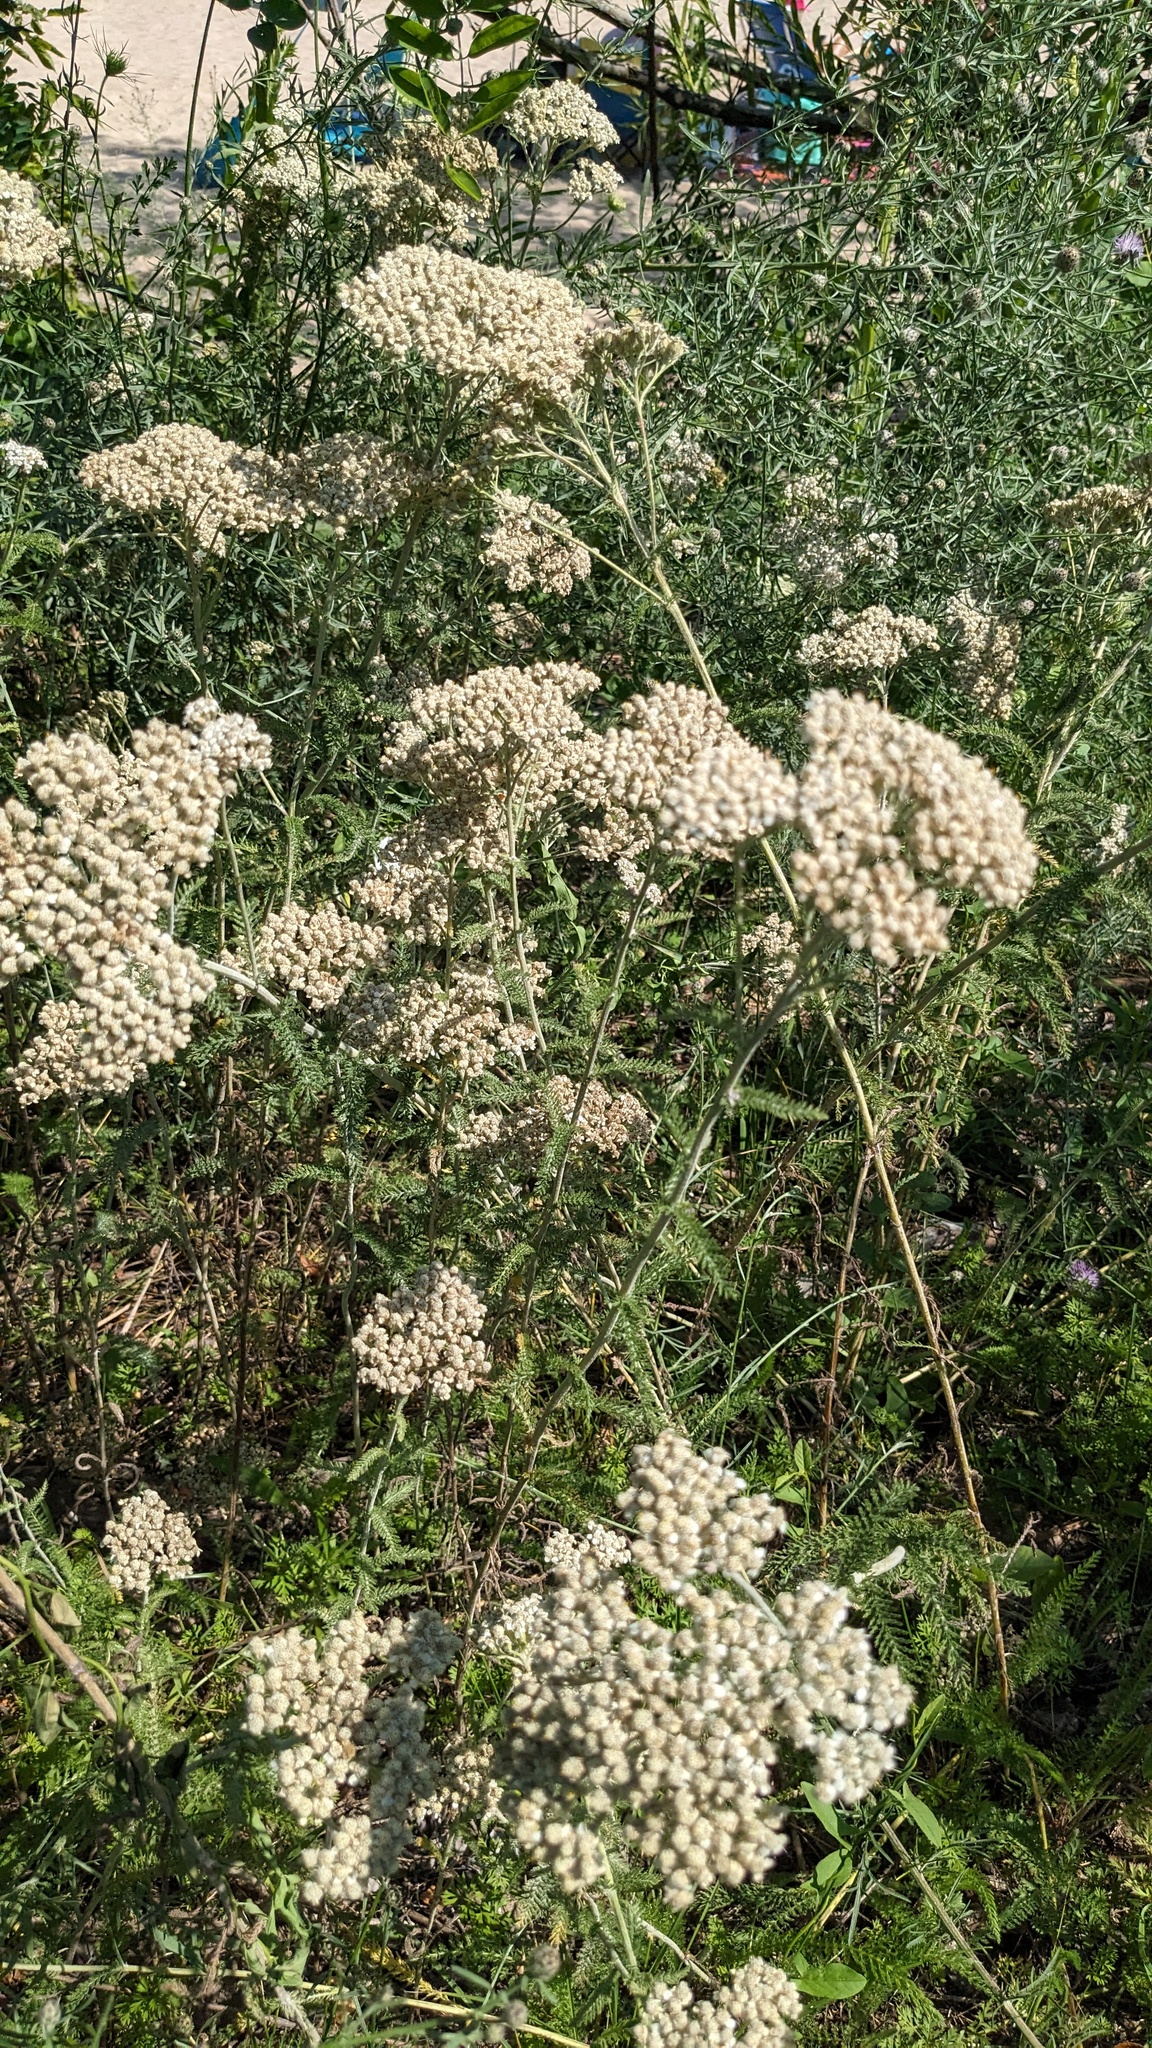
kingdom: Plantae
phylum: Tracheophyta
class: Magnoliopsida
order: Asterales
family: Asteraceae
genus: Achillea
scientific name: Achillea millefolium
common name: Yarrow
